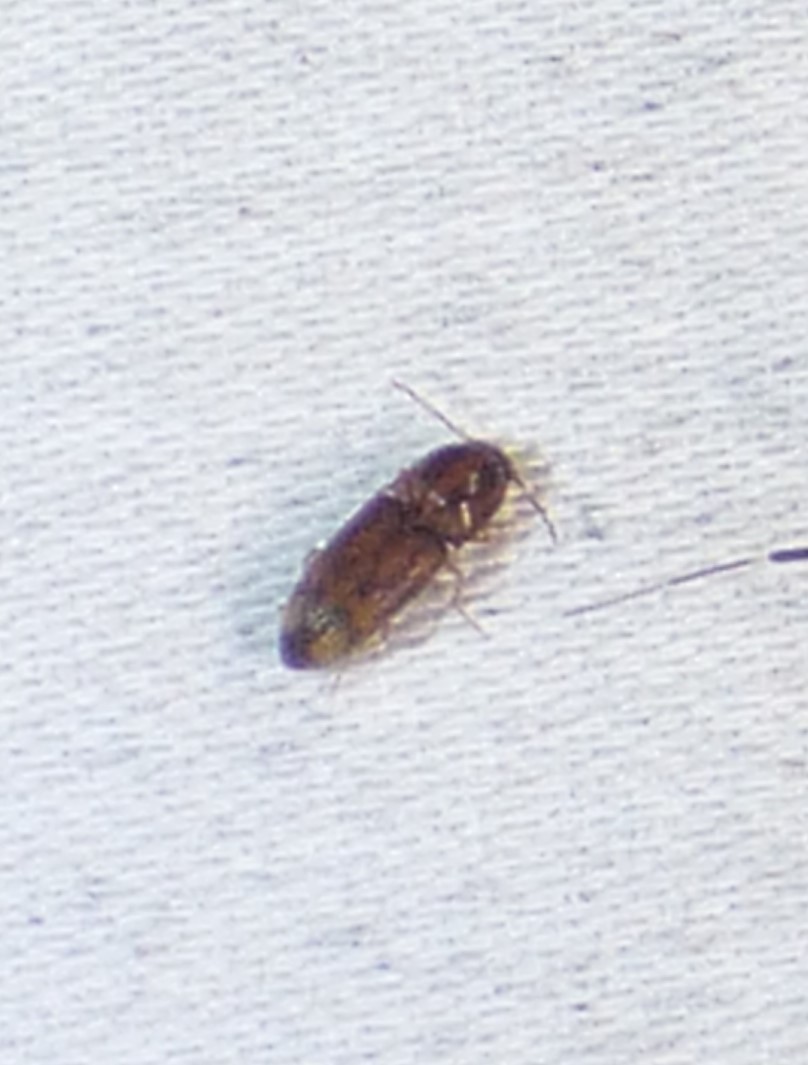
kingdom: Animalia
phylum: Arthropoda
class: Insecta
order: Coleoptera
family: Elateridae
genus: Monocrepidius
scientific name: Monocrepidius bellus
